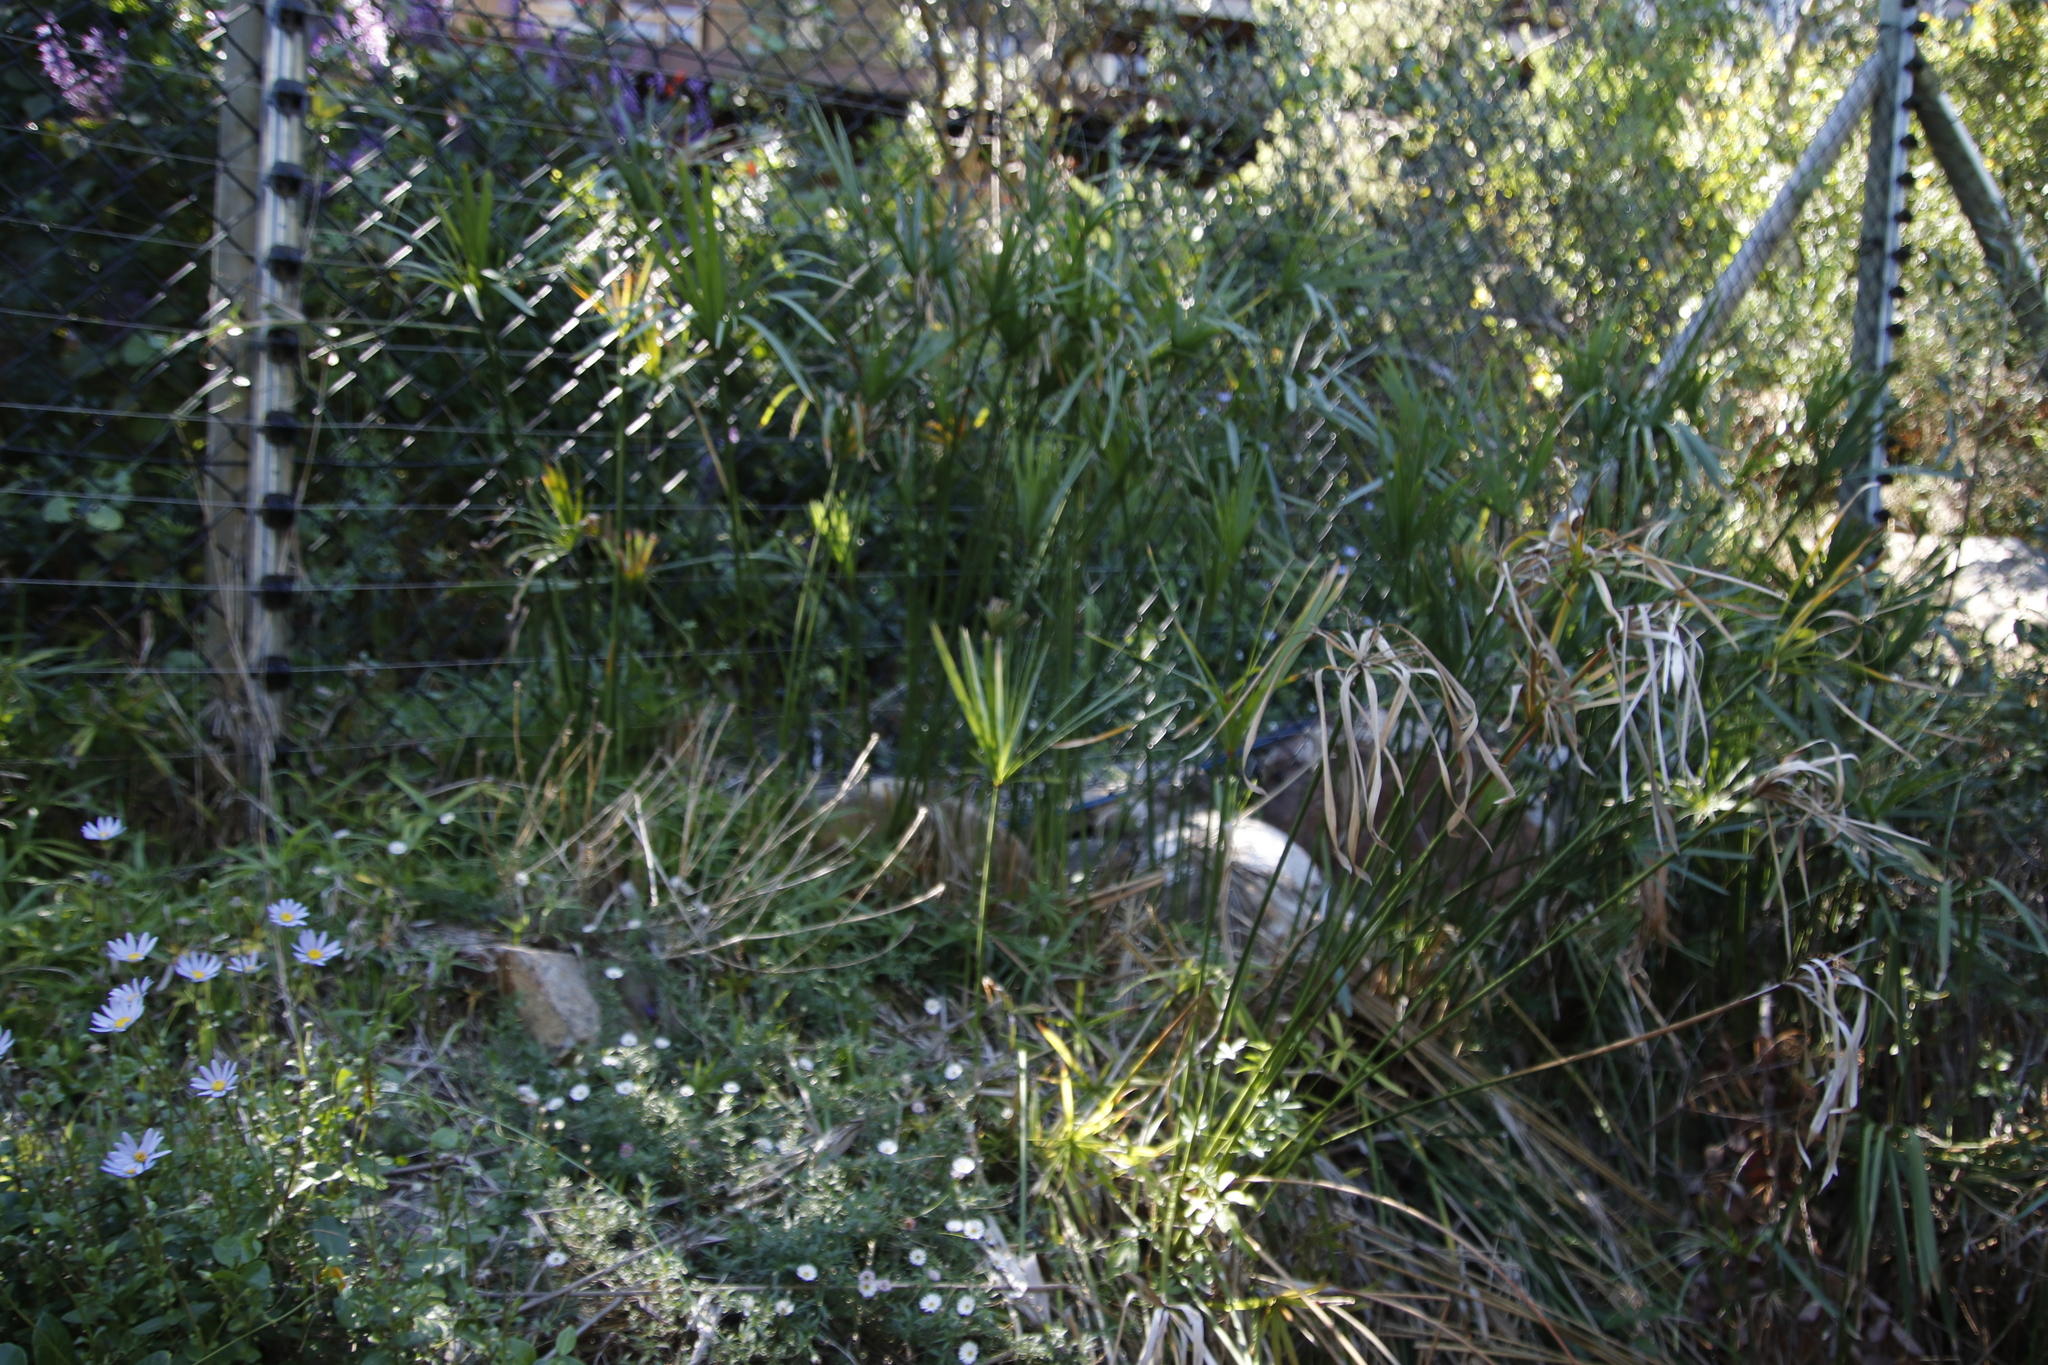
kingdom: Plantae
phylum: Tracheophyta
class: Liliopsida
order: Poales
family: Cyperaceae
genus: Cyperus
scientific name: Cyperus textilis
